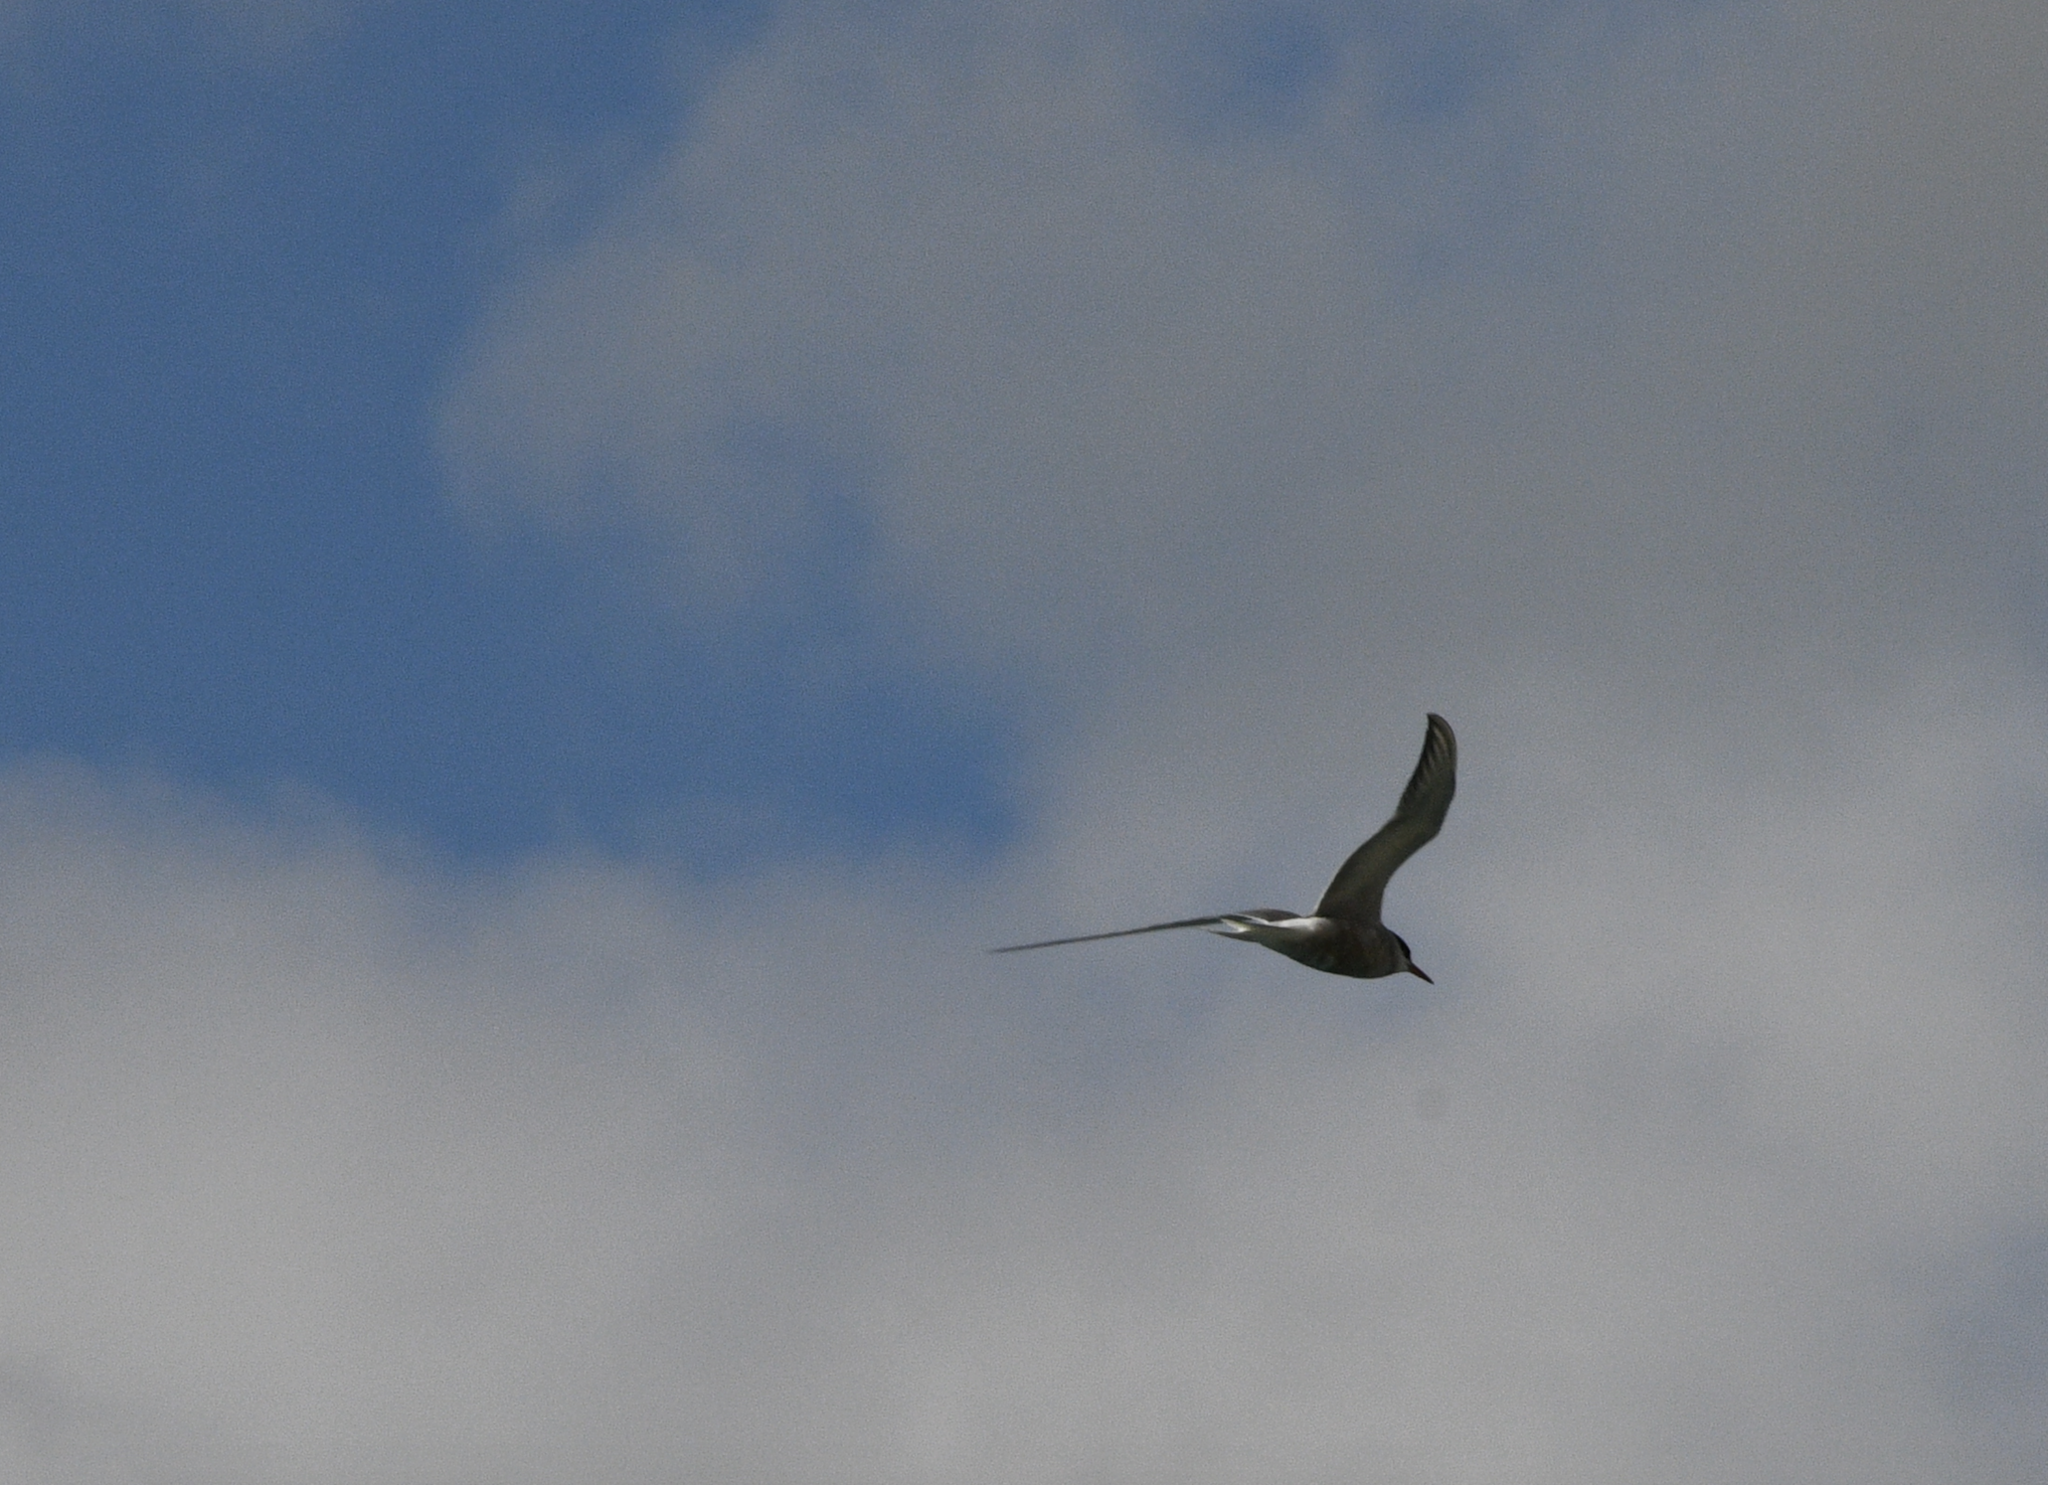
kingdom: Animalia
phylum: Chordata
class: Aves
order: Charadriiformes
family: Laridae
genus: Sterna
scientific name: Sterna hirundo
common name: Common tern
